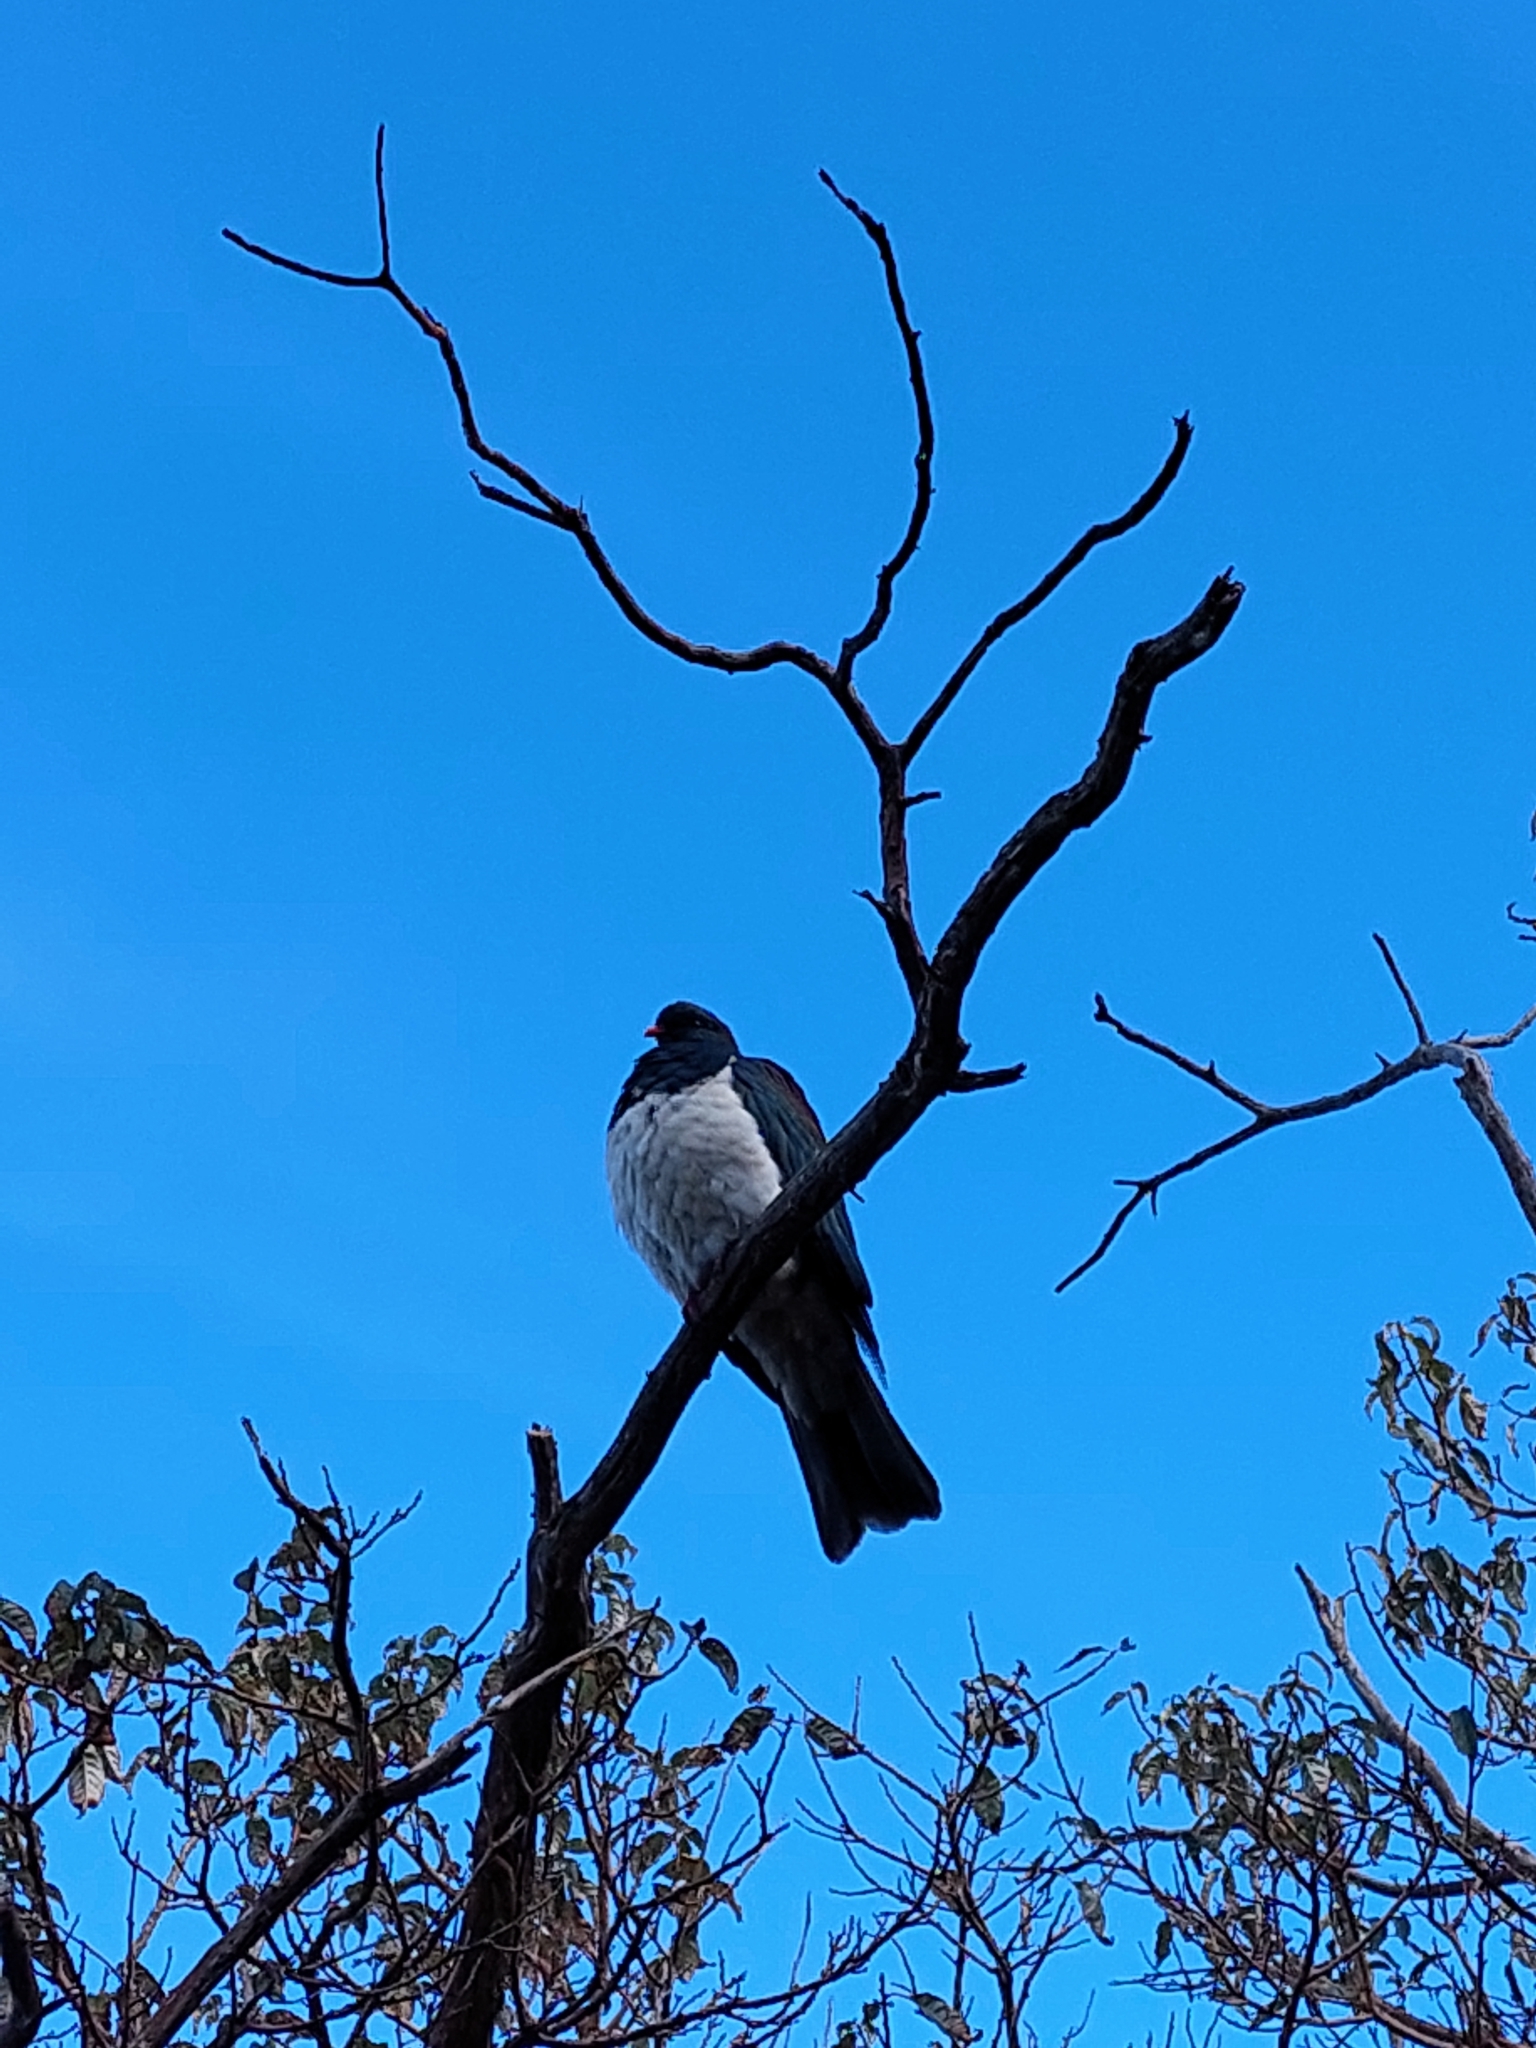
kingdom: Animalia
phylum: Chordata
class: Aves
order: Columbiformes
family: Columbidae
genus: Hemiphaga
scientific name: Hemiphaga novaeseelandiae
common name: New zealand pigeon
